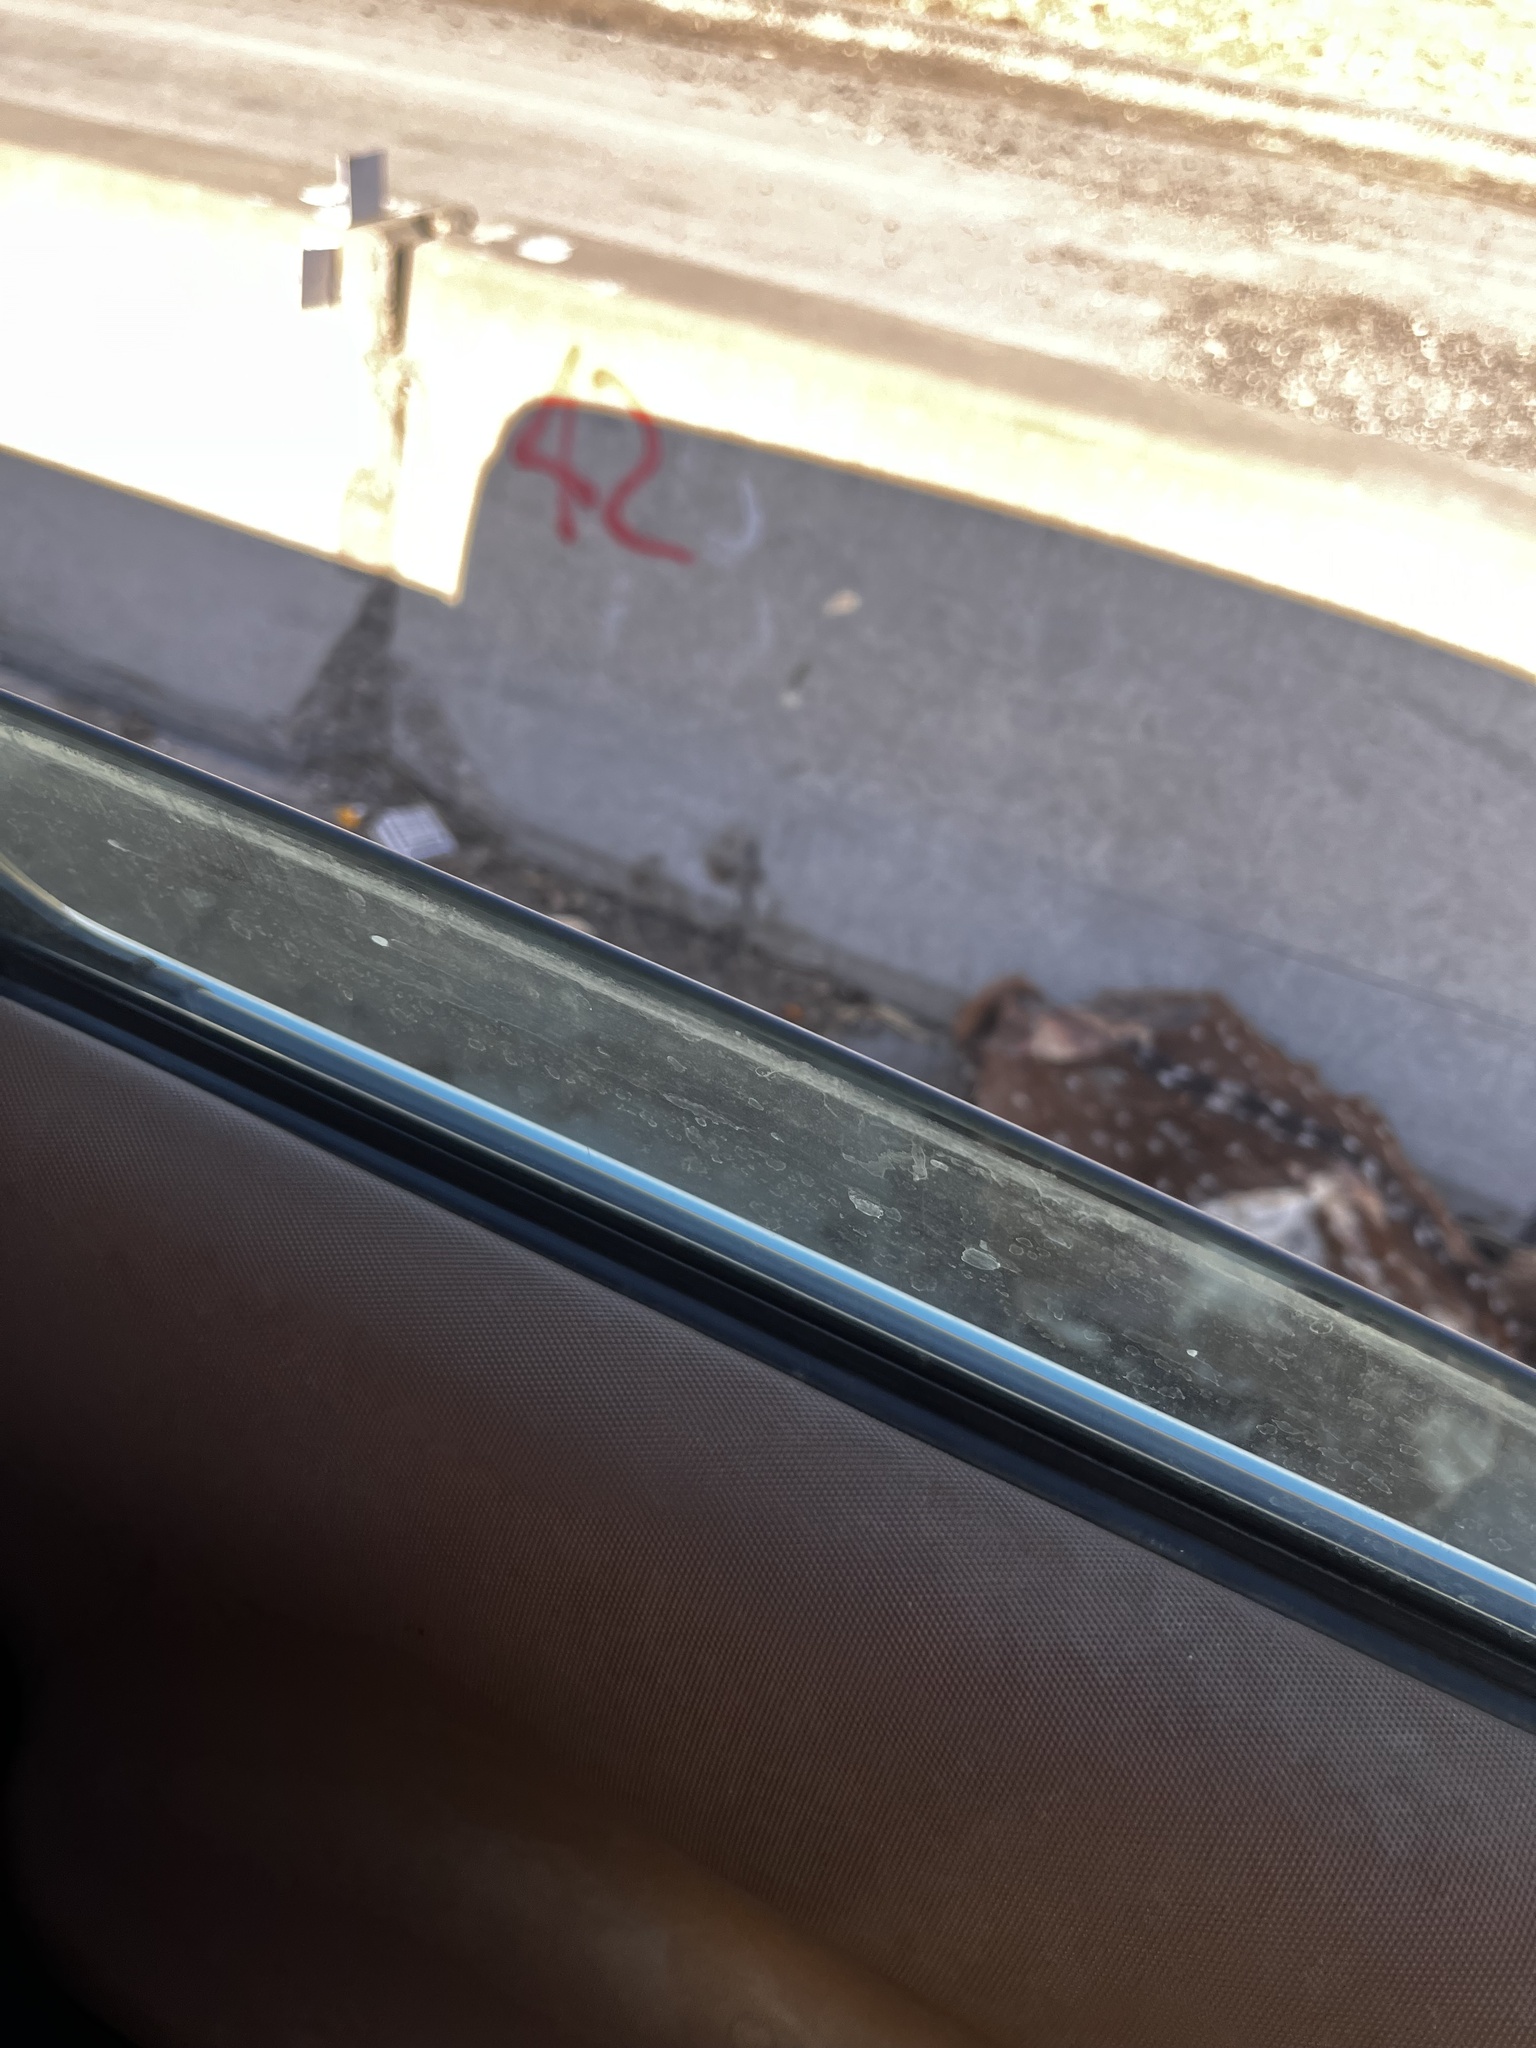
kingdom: Animalia
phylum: Chordata
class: Mammalia
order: Artiodactyla
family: Cervidae
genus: Axis
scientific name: Axis axis
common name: Chital
